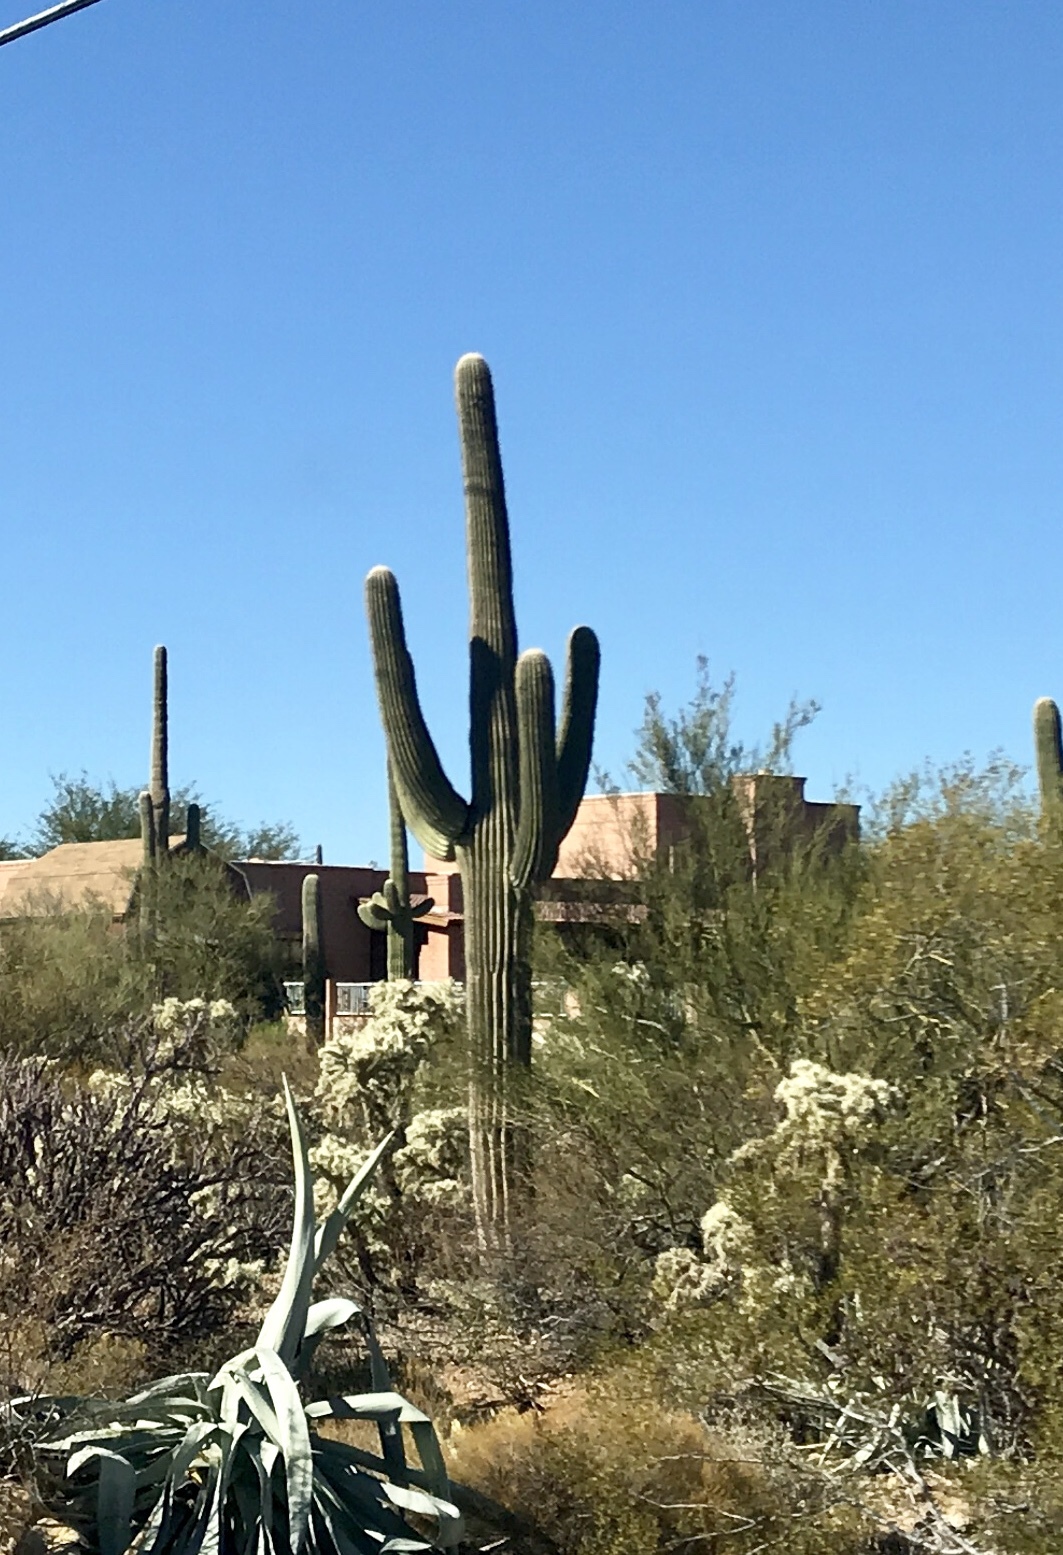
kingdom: Plantae
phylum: Tracheophyta
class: Magnoliopsida
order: Caryophyllales
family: Cactaceae
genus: Carnegiea
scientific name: Carnegiea gigantea
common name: Saguaro
